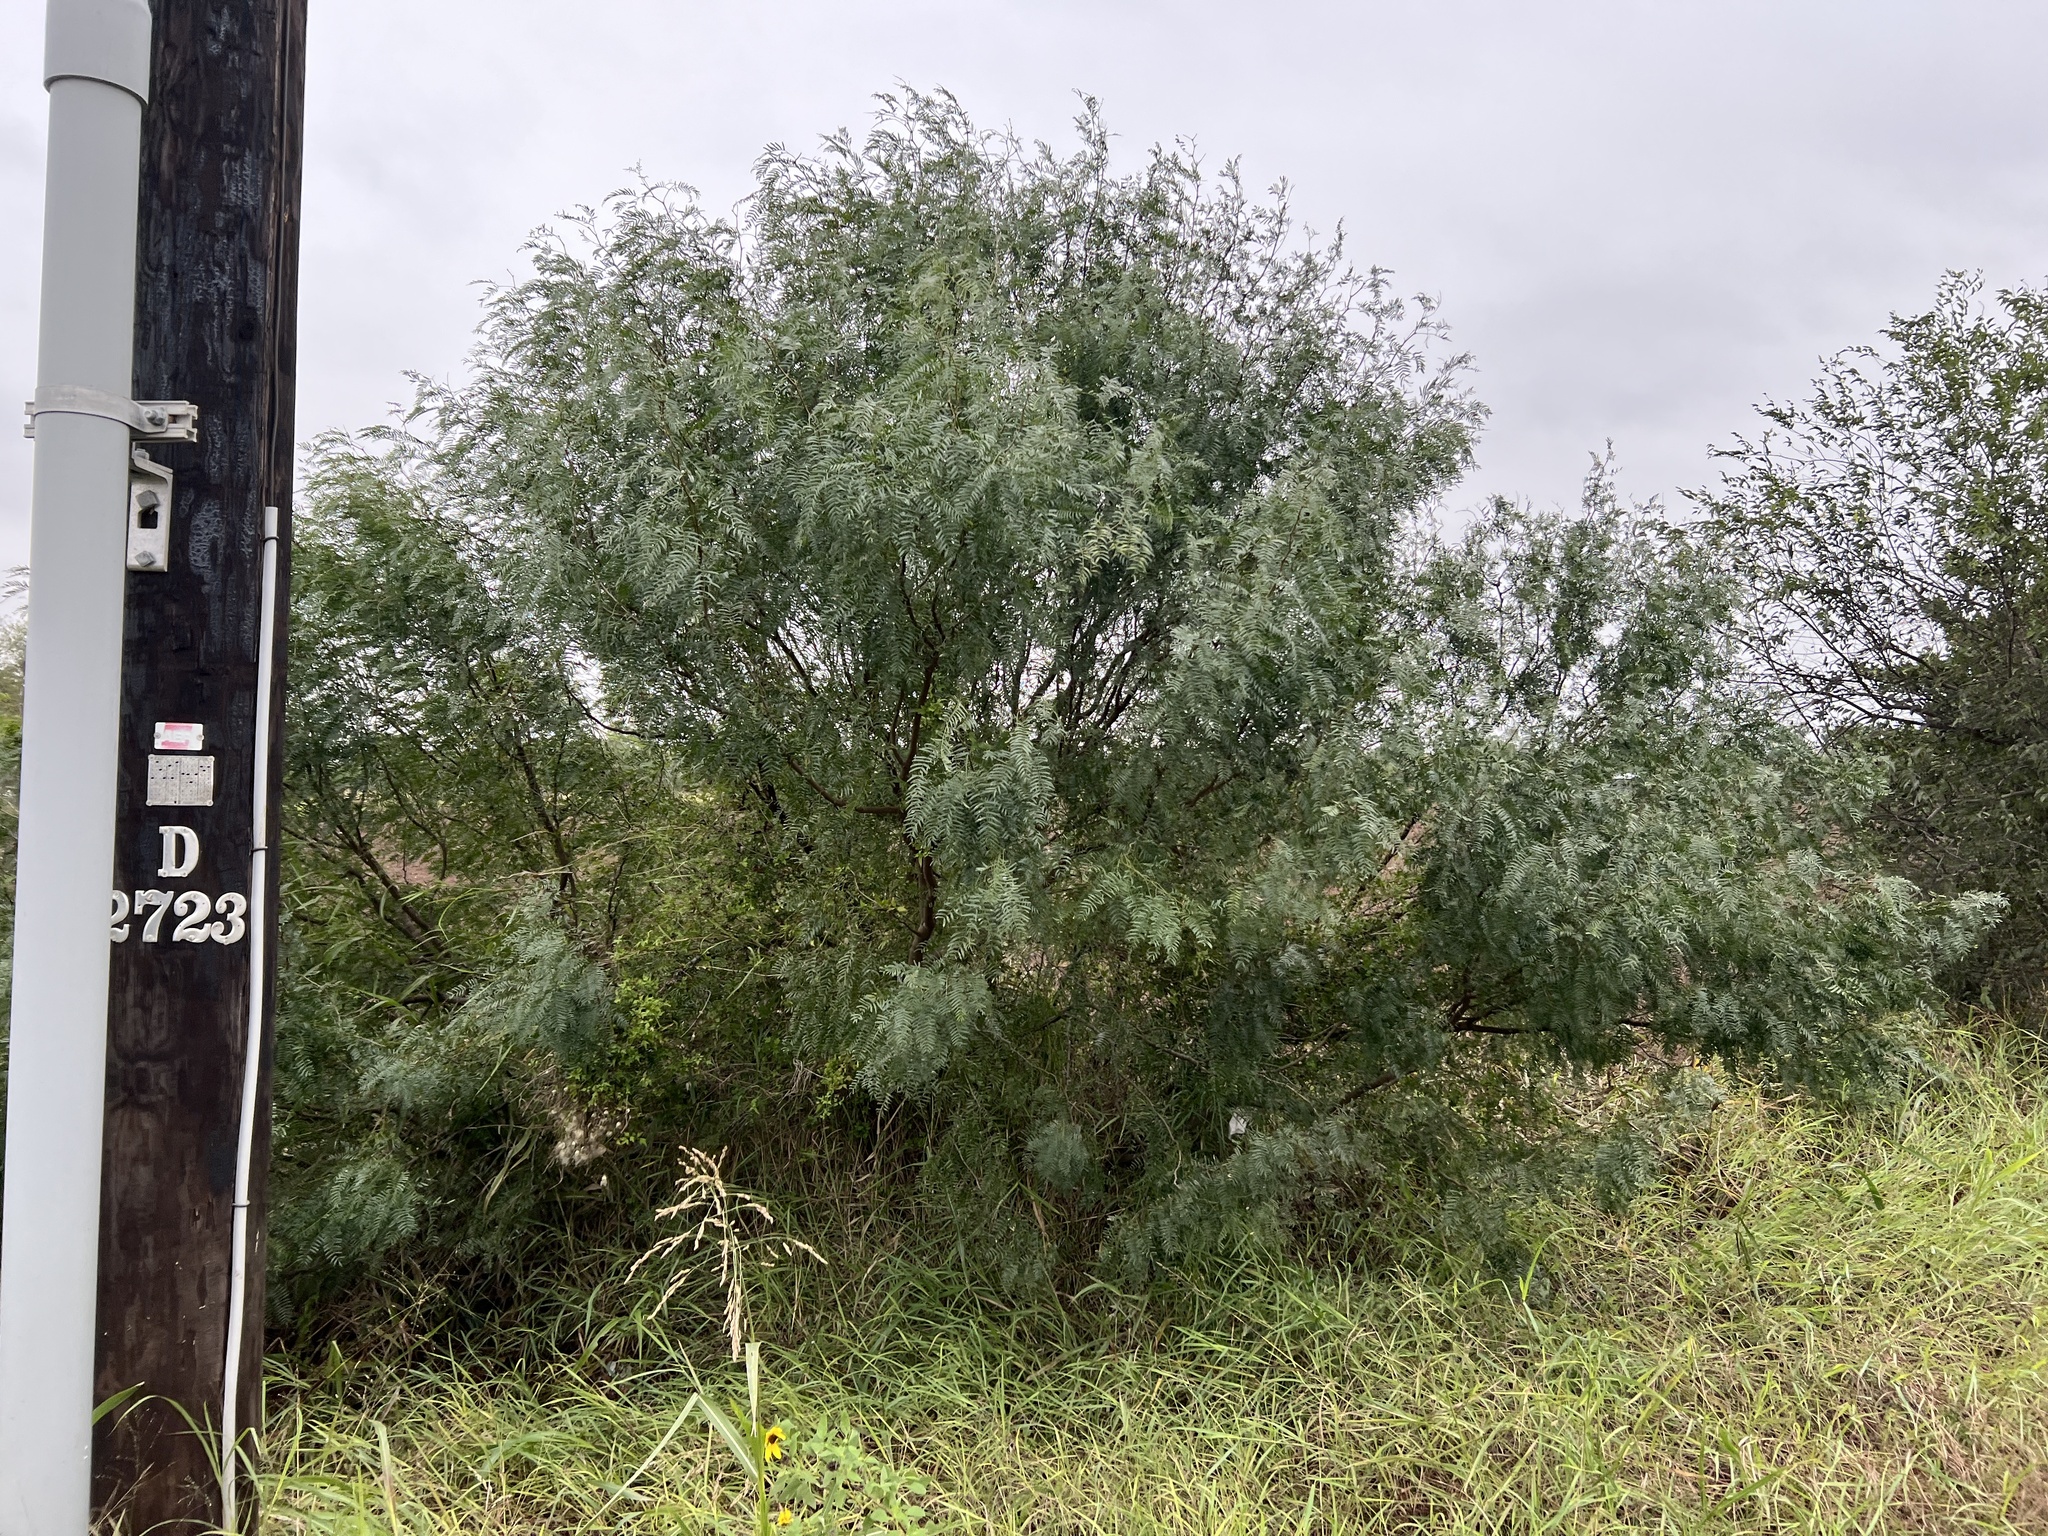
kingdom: Plantae
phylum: Tracheophyta
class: Magnoliopsida
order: Fabales
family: Fabaceae
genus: Prosopis
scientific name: Prosopis glandulosa
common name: Honey mesquite
